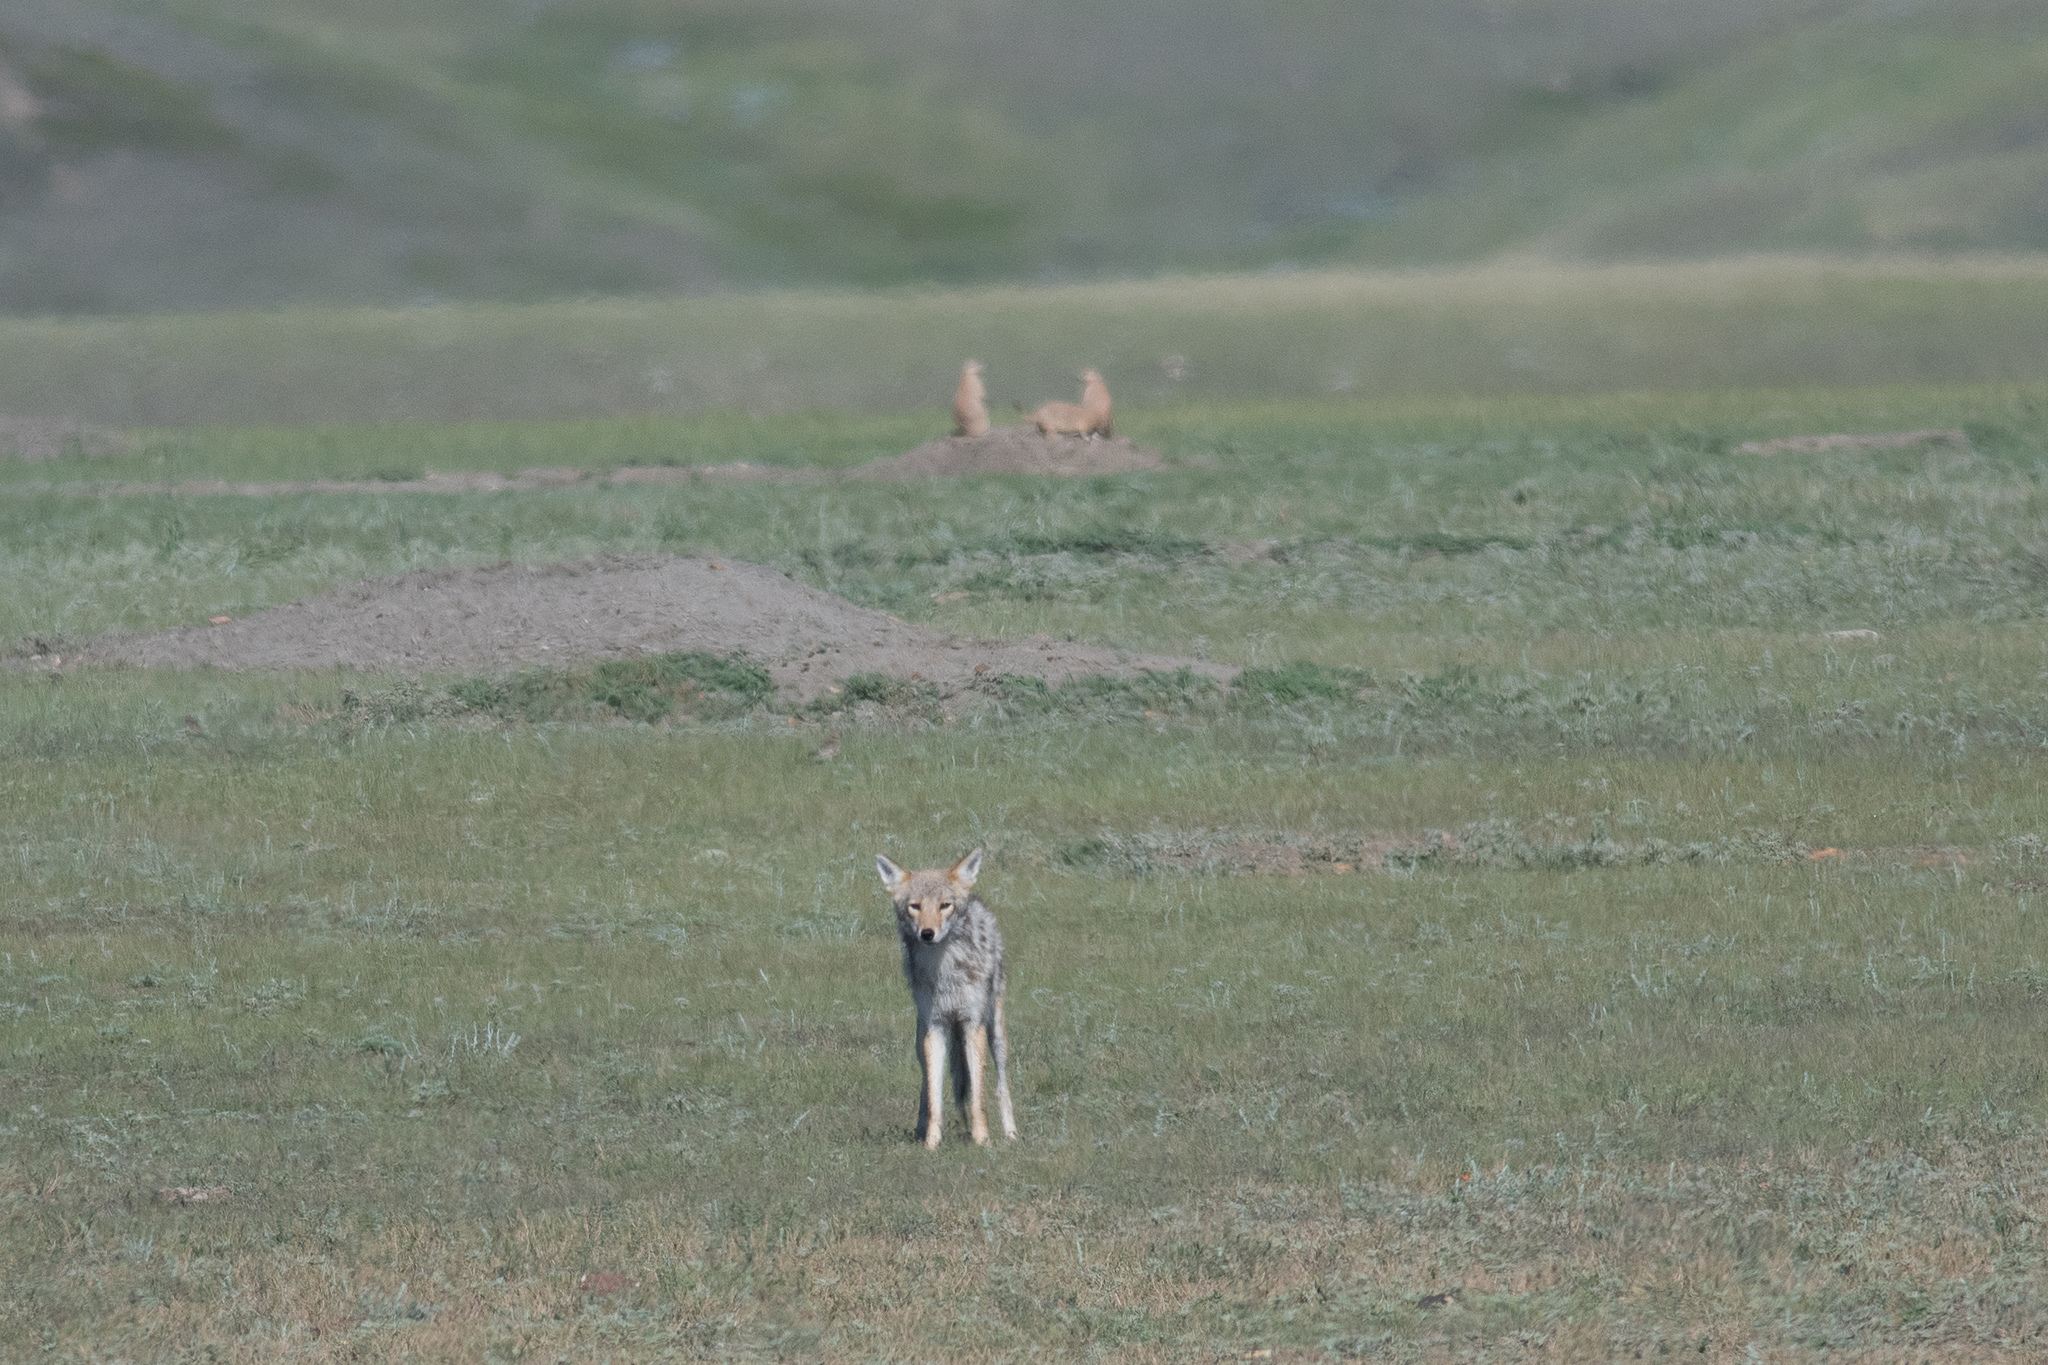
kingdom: Animalia
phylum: Chordata
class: Mammalia
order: Carnivora
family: Canidae
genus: Canis
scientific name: Canis latrans
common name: Coyote
